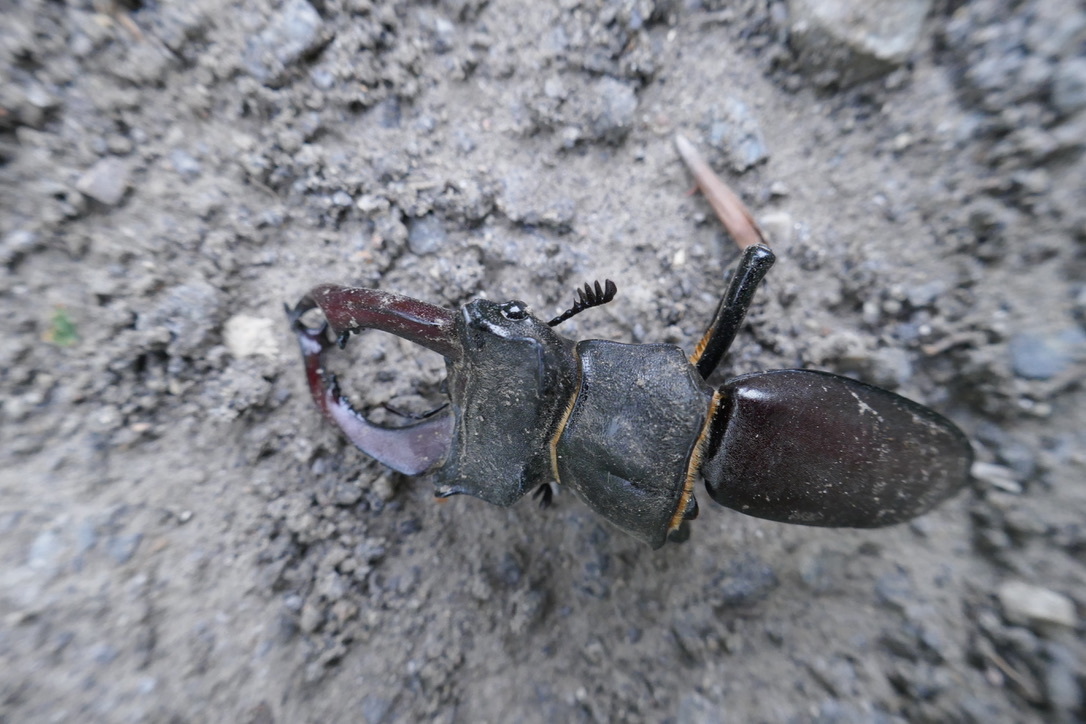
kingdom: Animalia
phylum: Arthropoda
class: Insecta
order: Coleoptera
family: Lucanidae
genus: Lucanus
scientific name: Lucanus cervus
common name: Stag beetle
